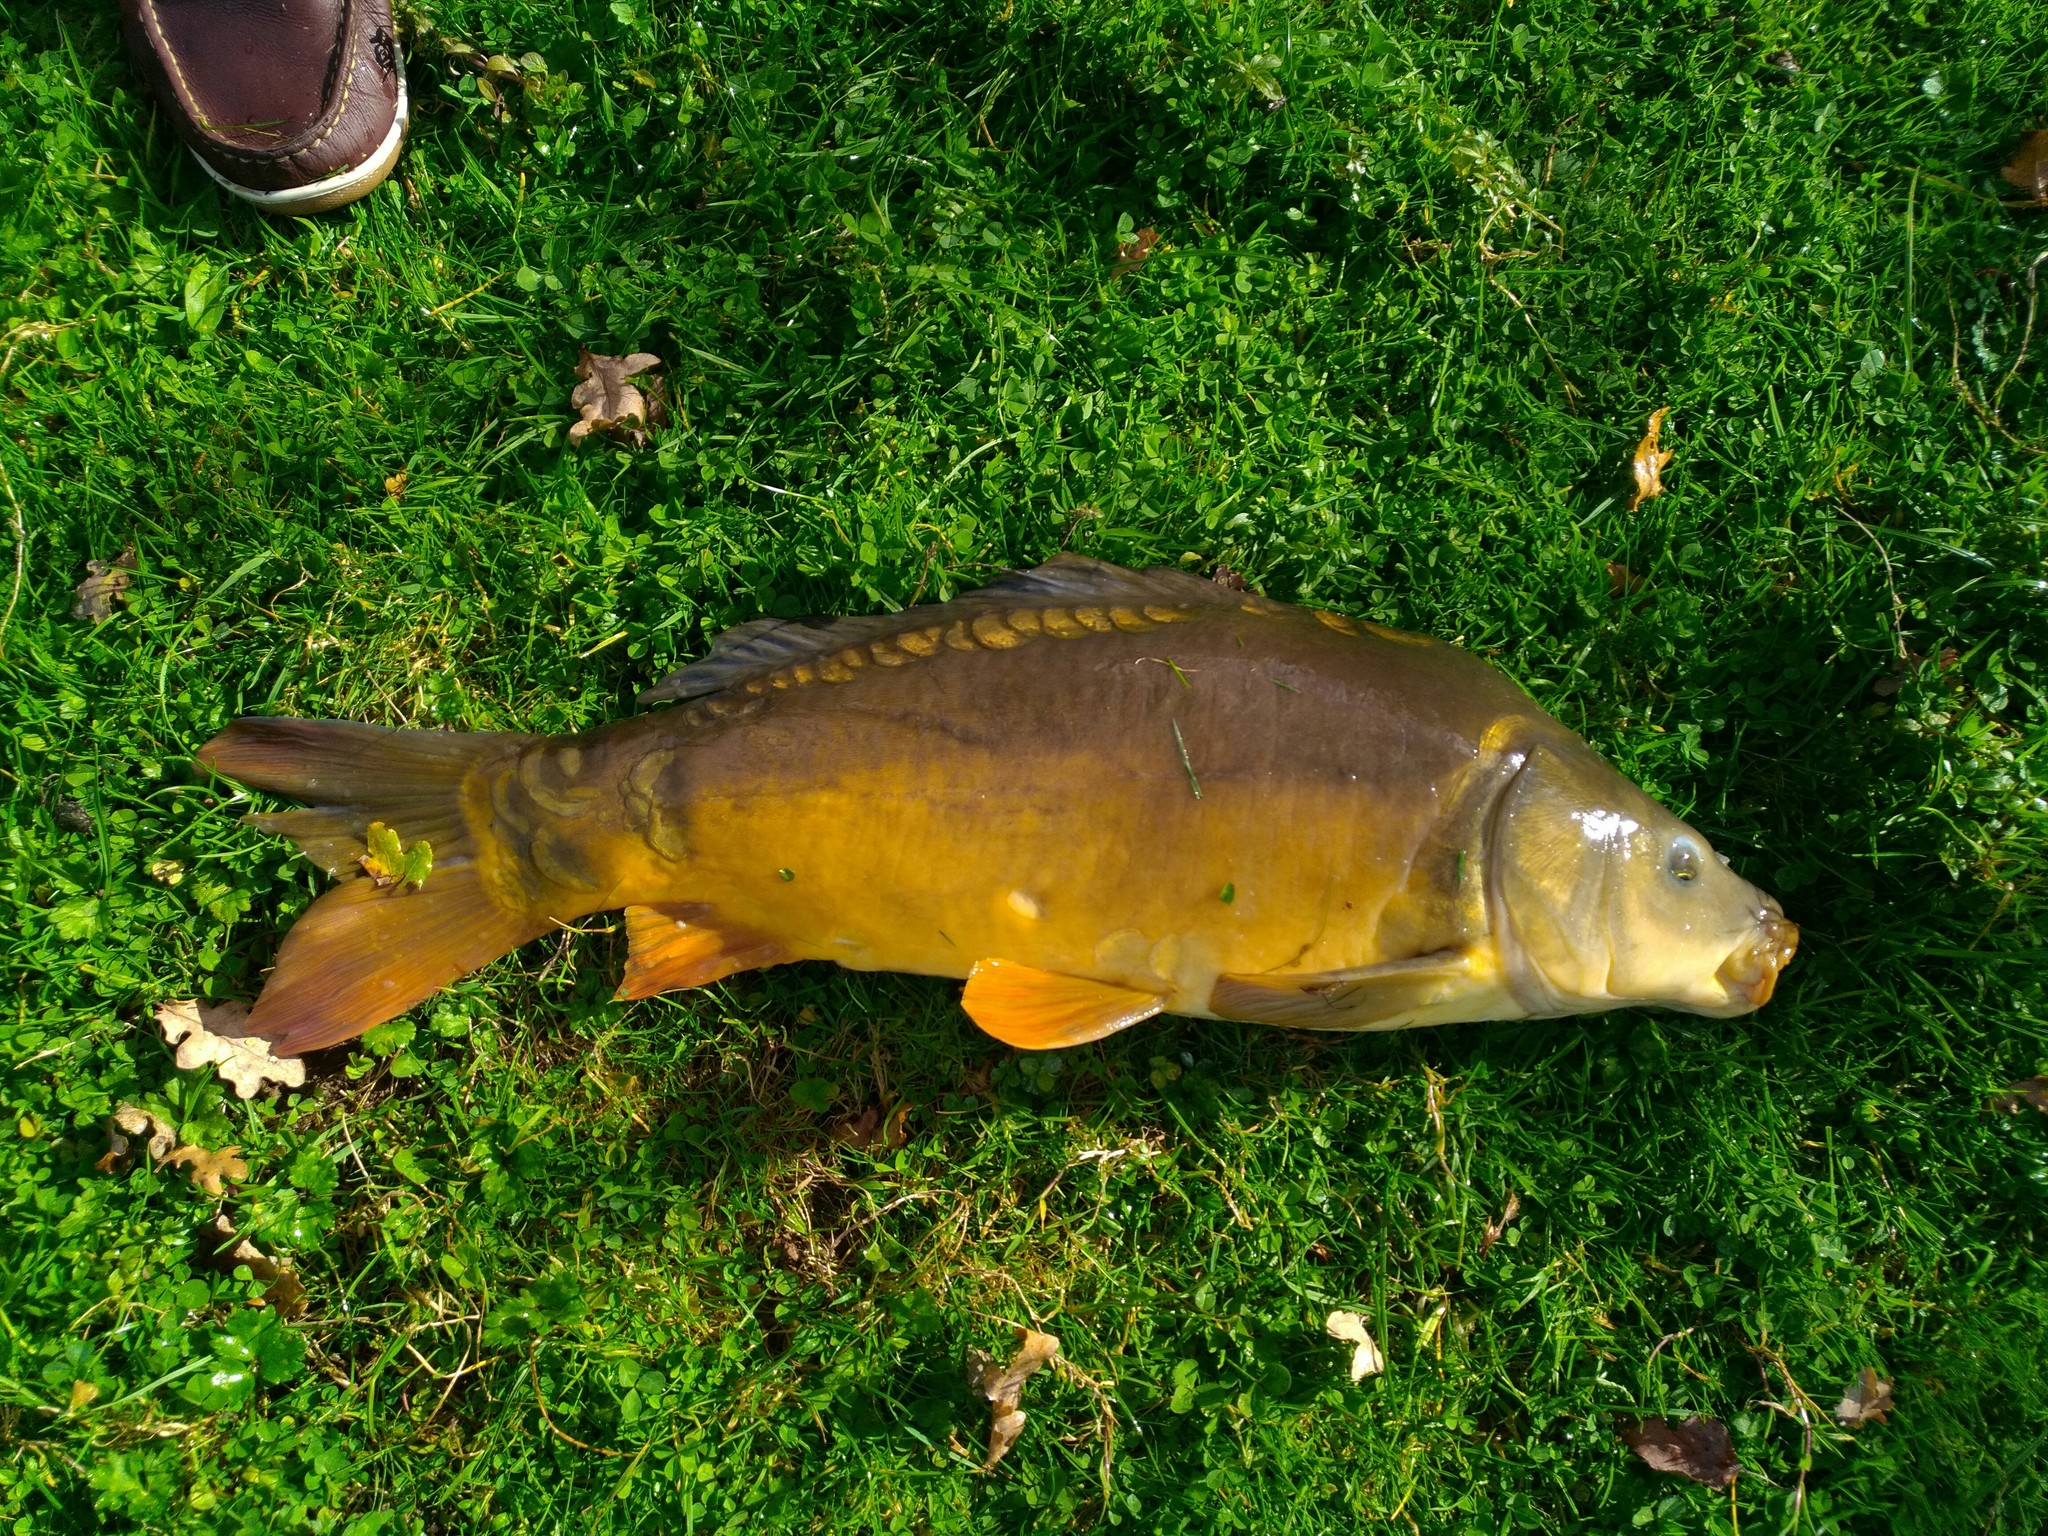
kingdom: Animalia
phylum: Chordata
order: Cypriniformes
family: Cyprinidae
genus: Cyprinus
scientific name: Cyprinus carpio
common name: Common carp
